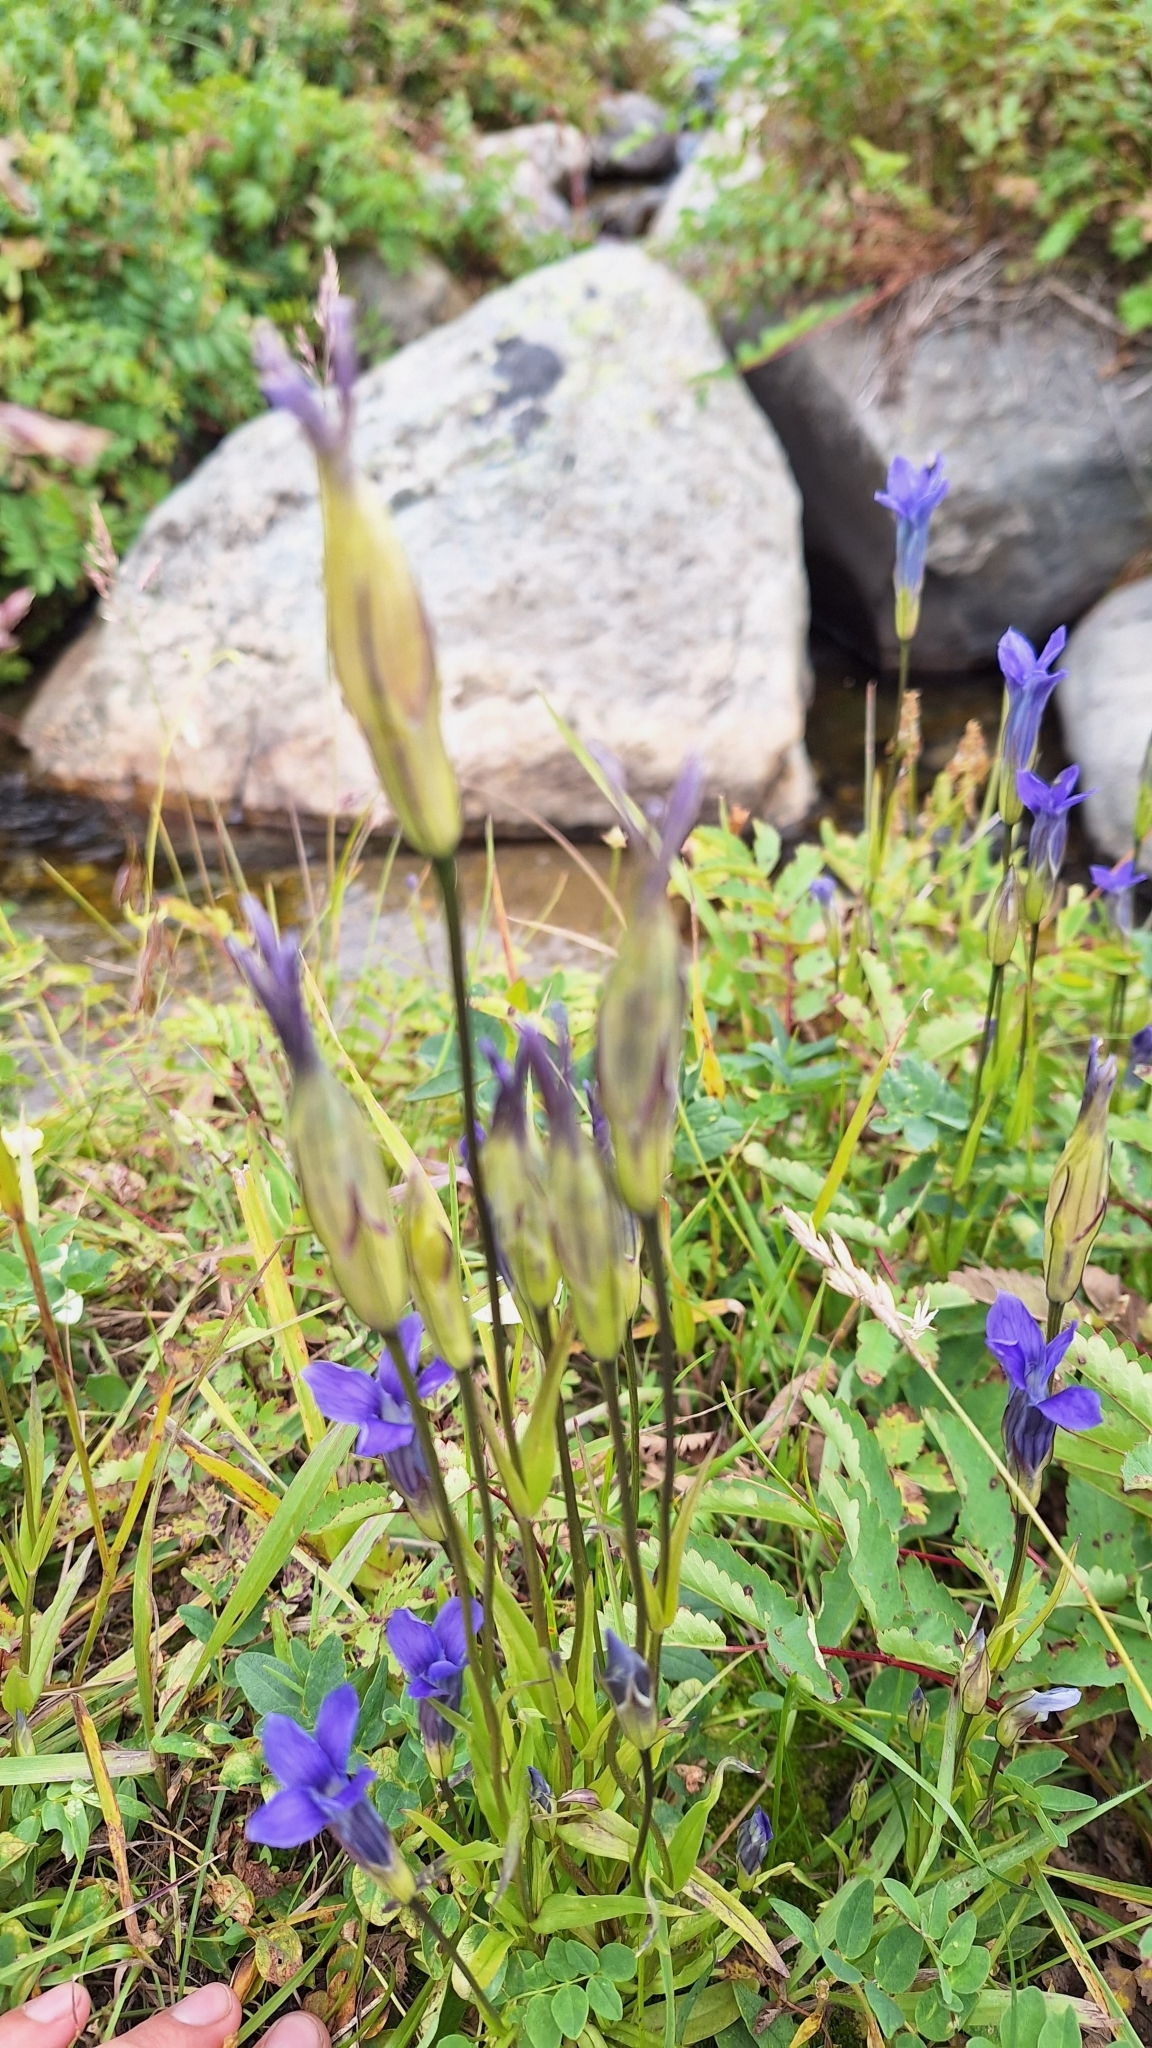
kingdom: Plantae
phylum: Tracheophyta
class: Magnoliopsida
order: Gentianales
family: Gentianaceae
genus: Gentianopsis
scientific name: Gentianopsis barbata
